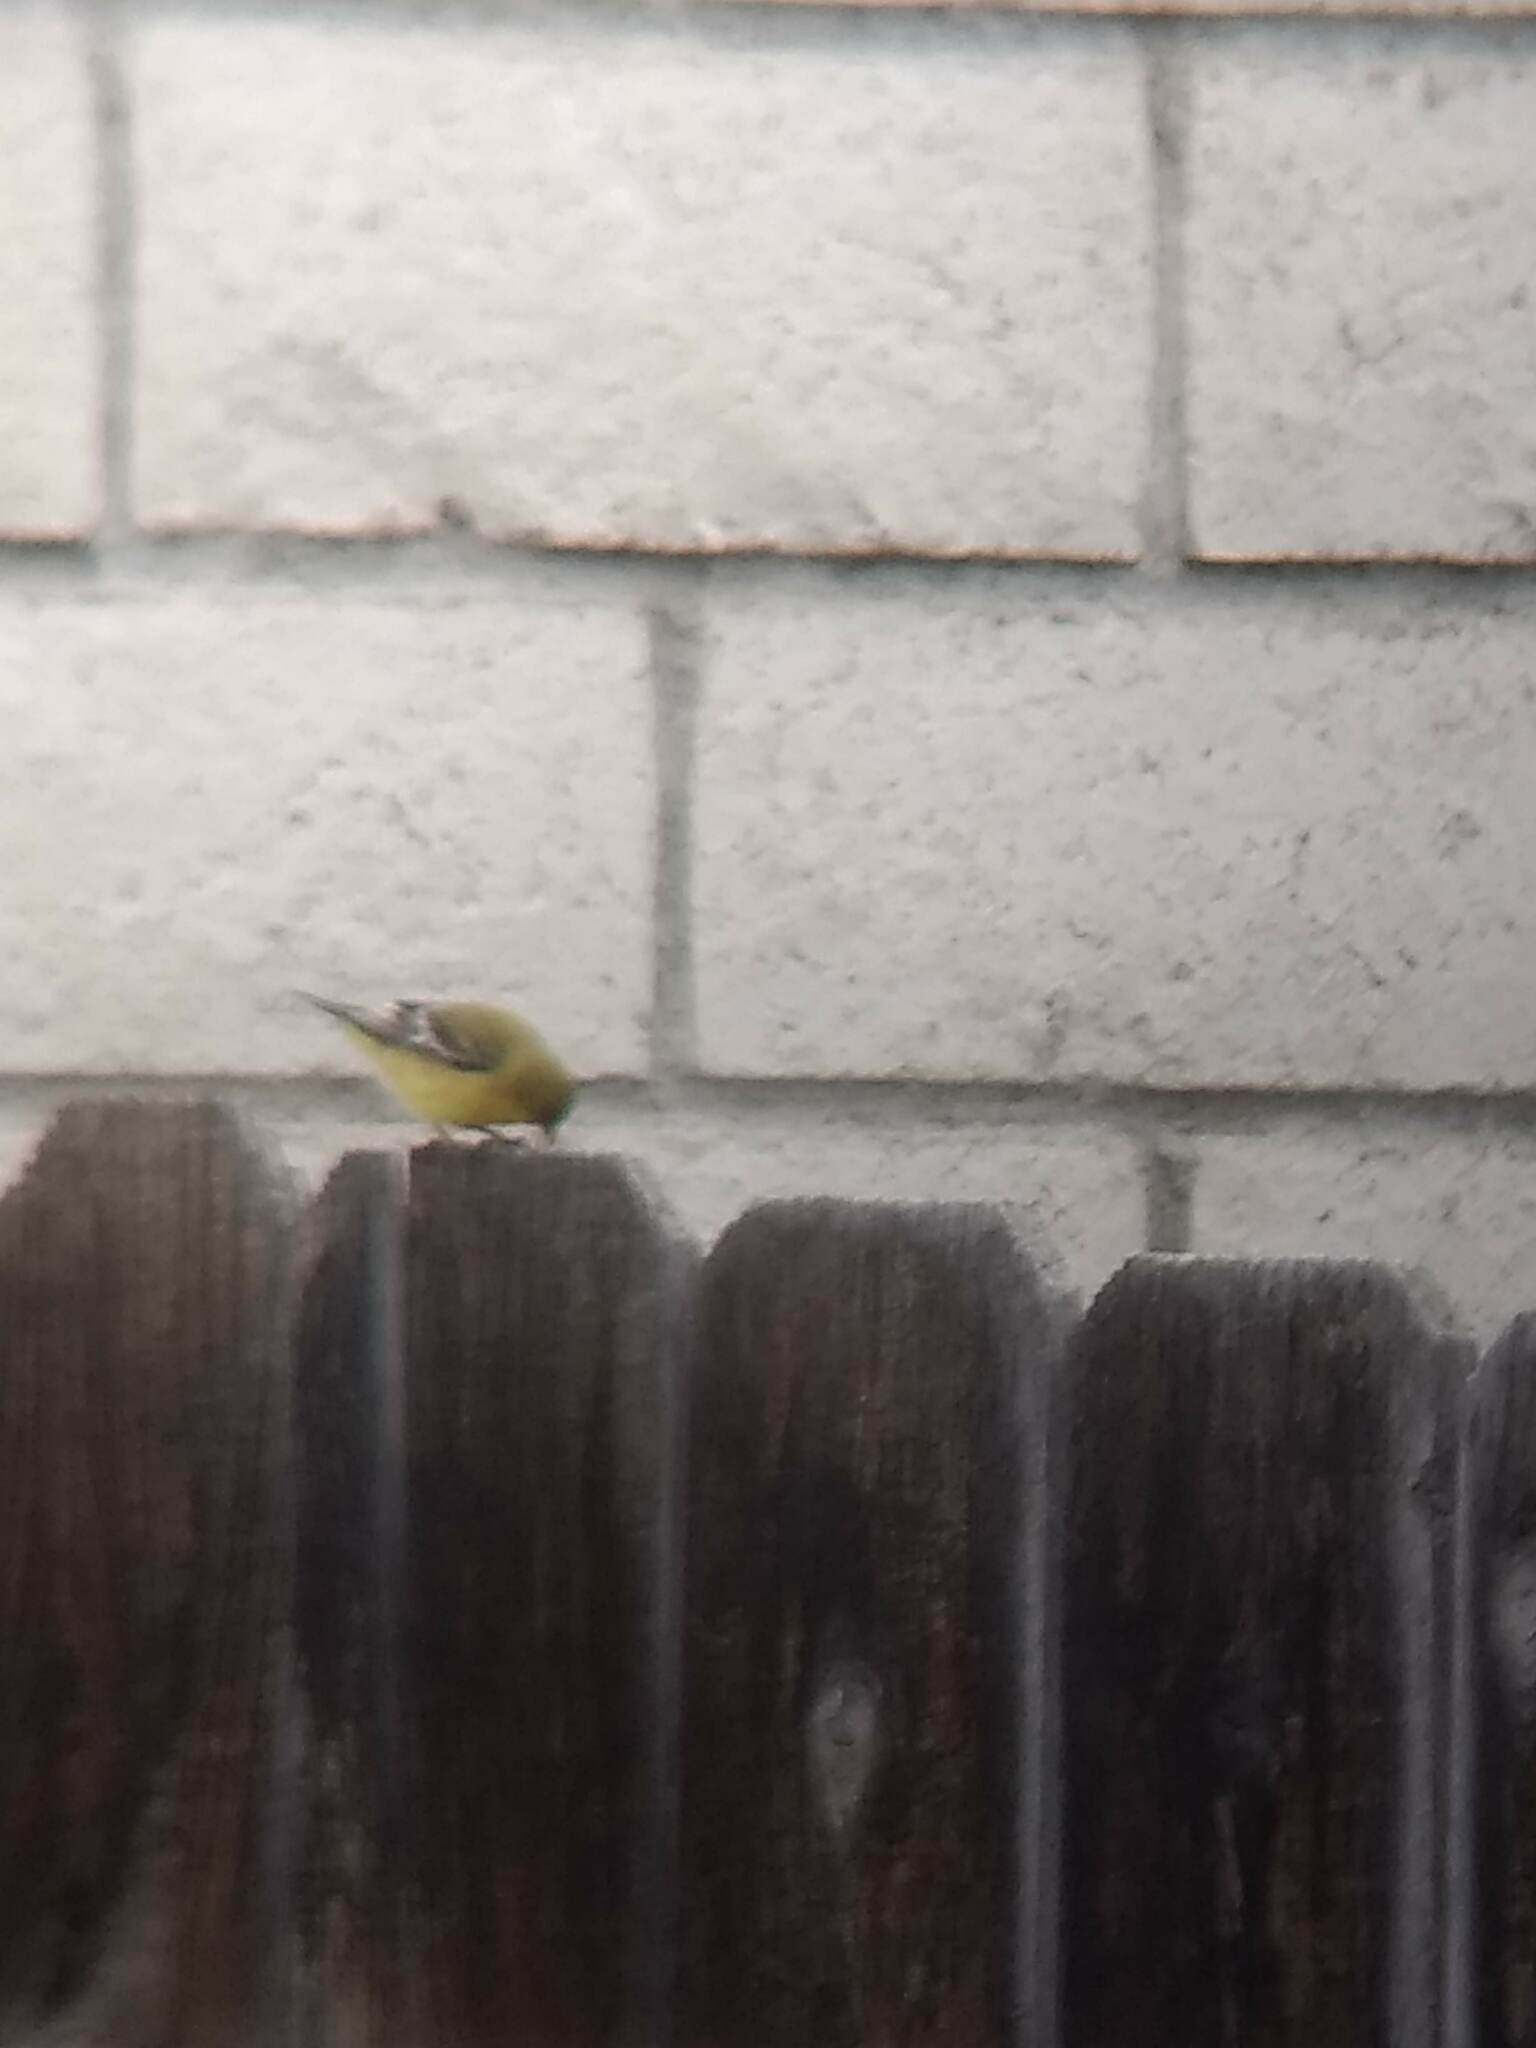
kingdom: Animalia
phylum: Chordata
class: Aves
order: Passeriformes
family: Fringillidae
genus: Spinus
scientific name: Spinus psaltria
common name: Lesser goldfinch
